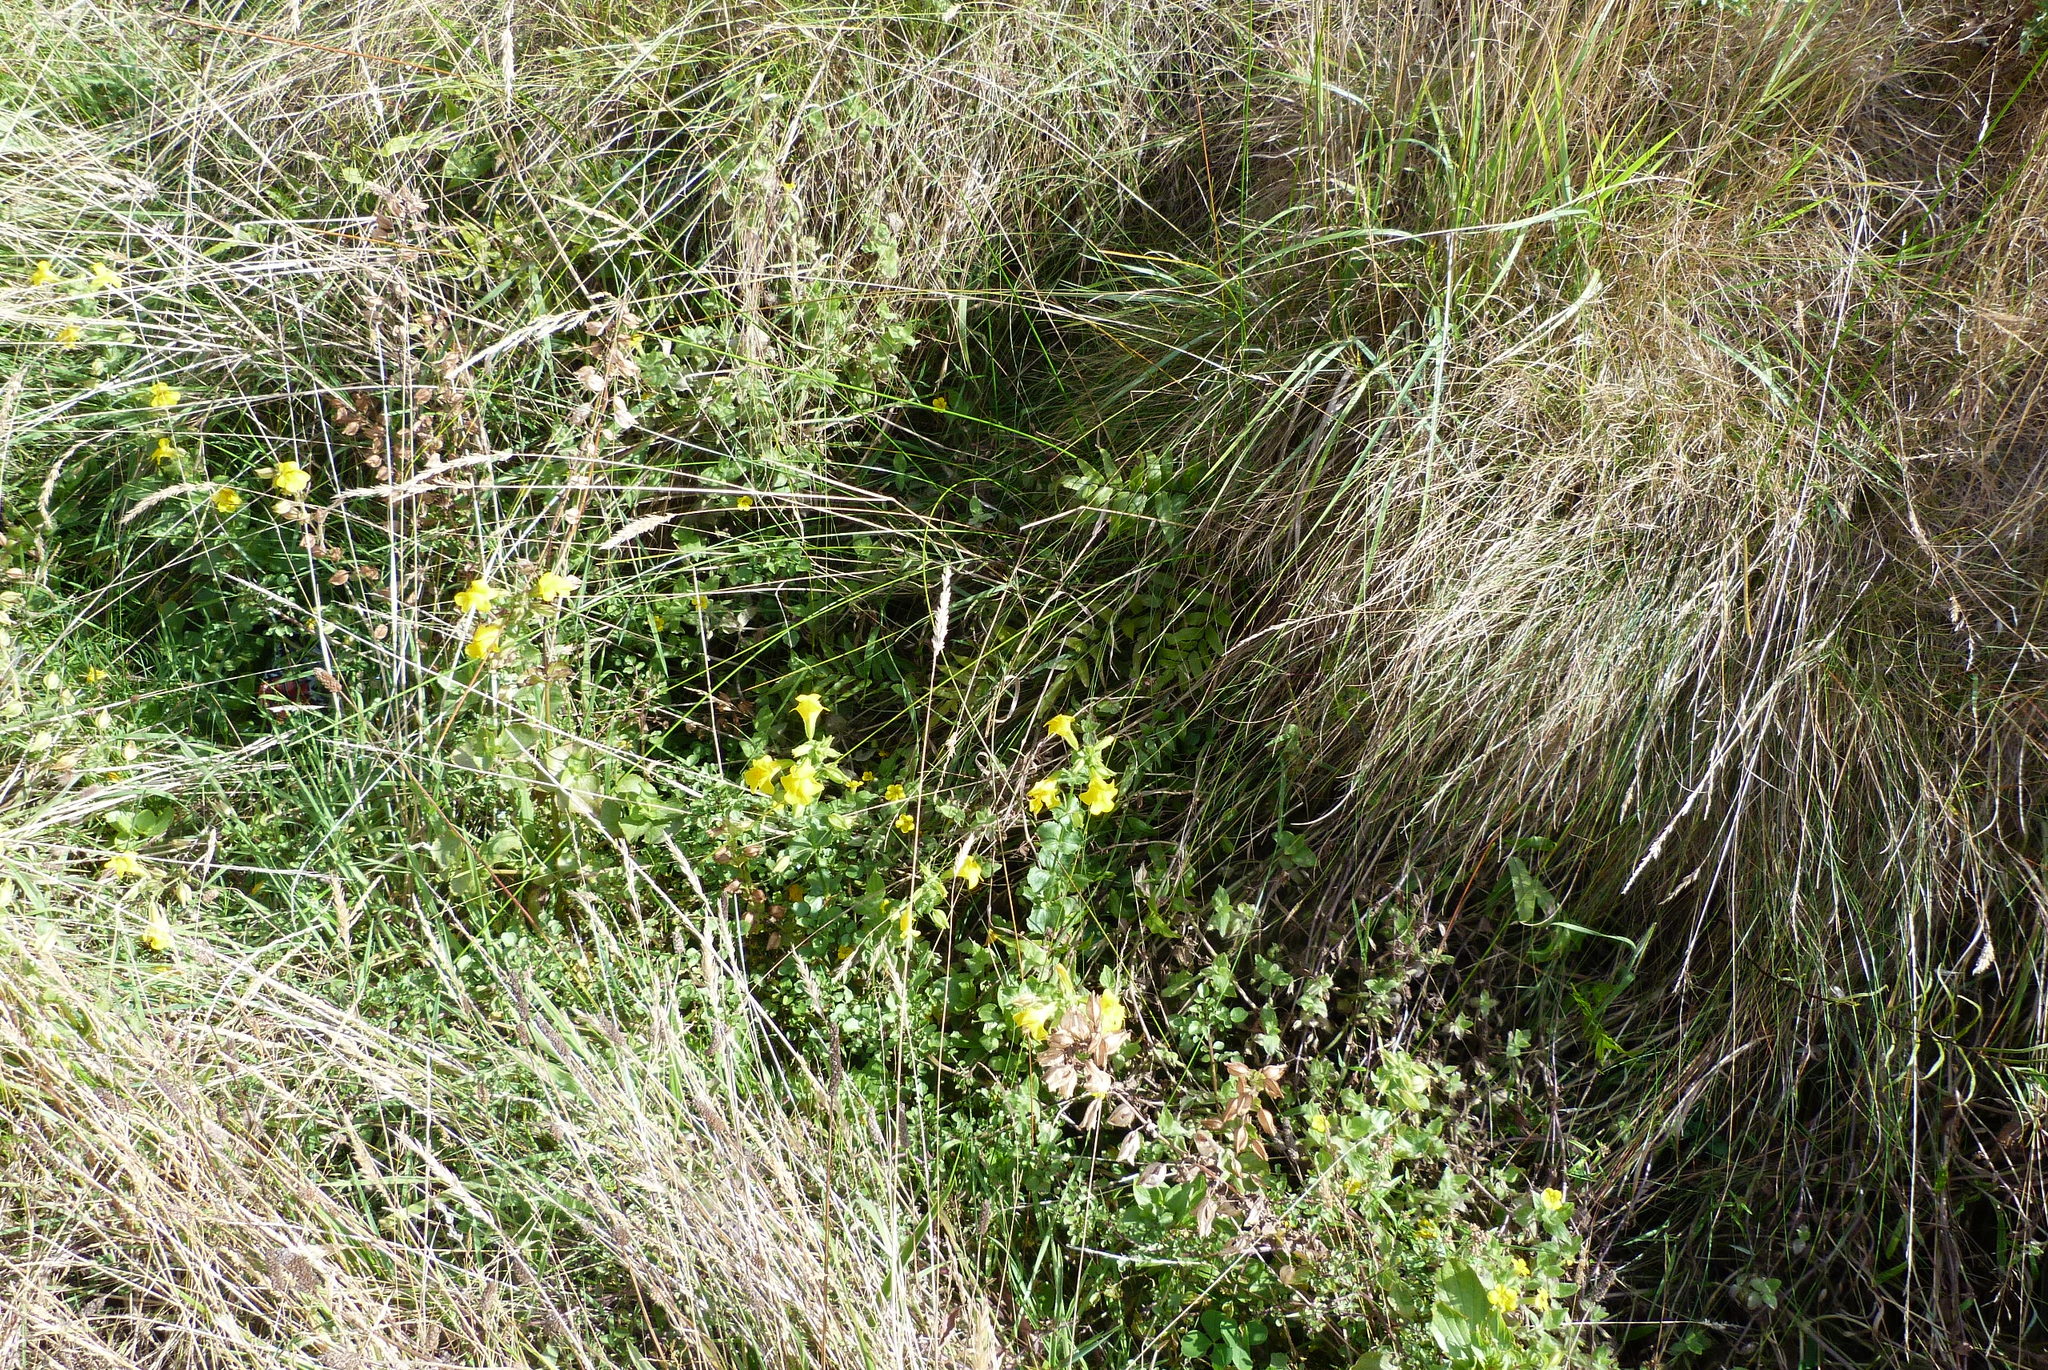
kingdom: Plantae
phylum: Tracheophyta
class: Polypodiopsida
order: Polypodiales
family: Blechnaceae
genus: Parablechnum
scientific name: Parablechnum minus
